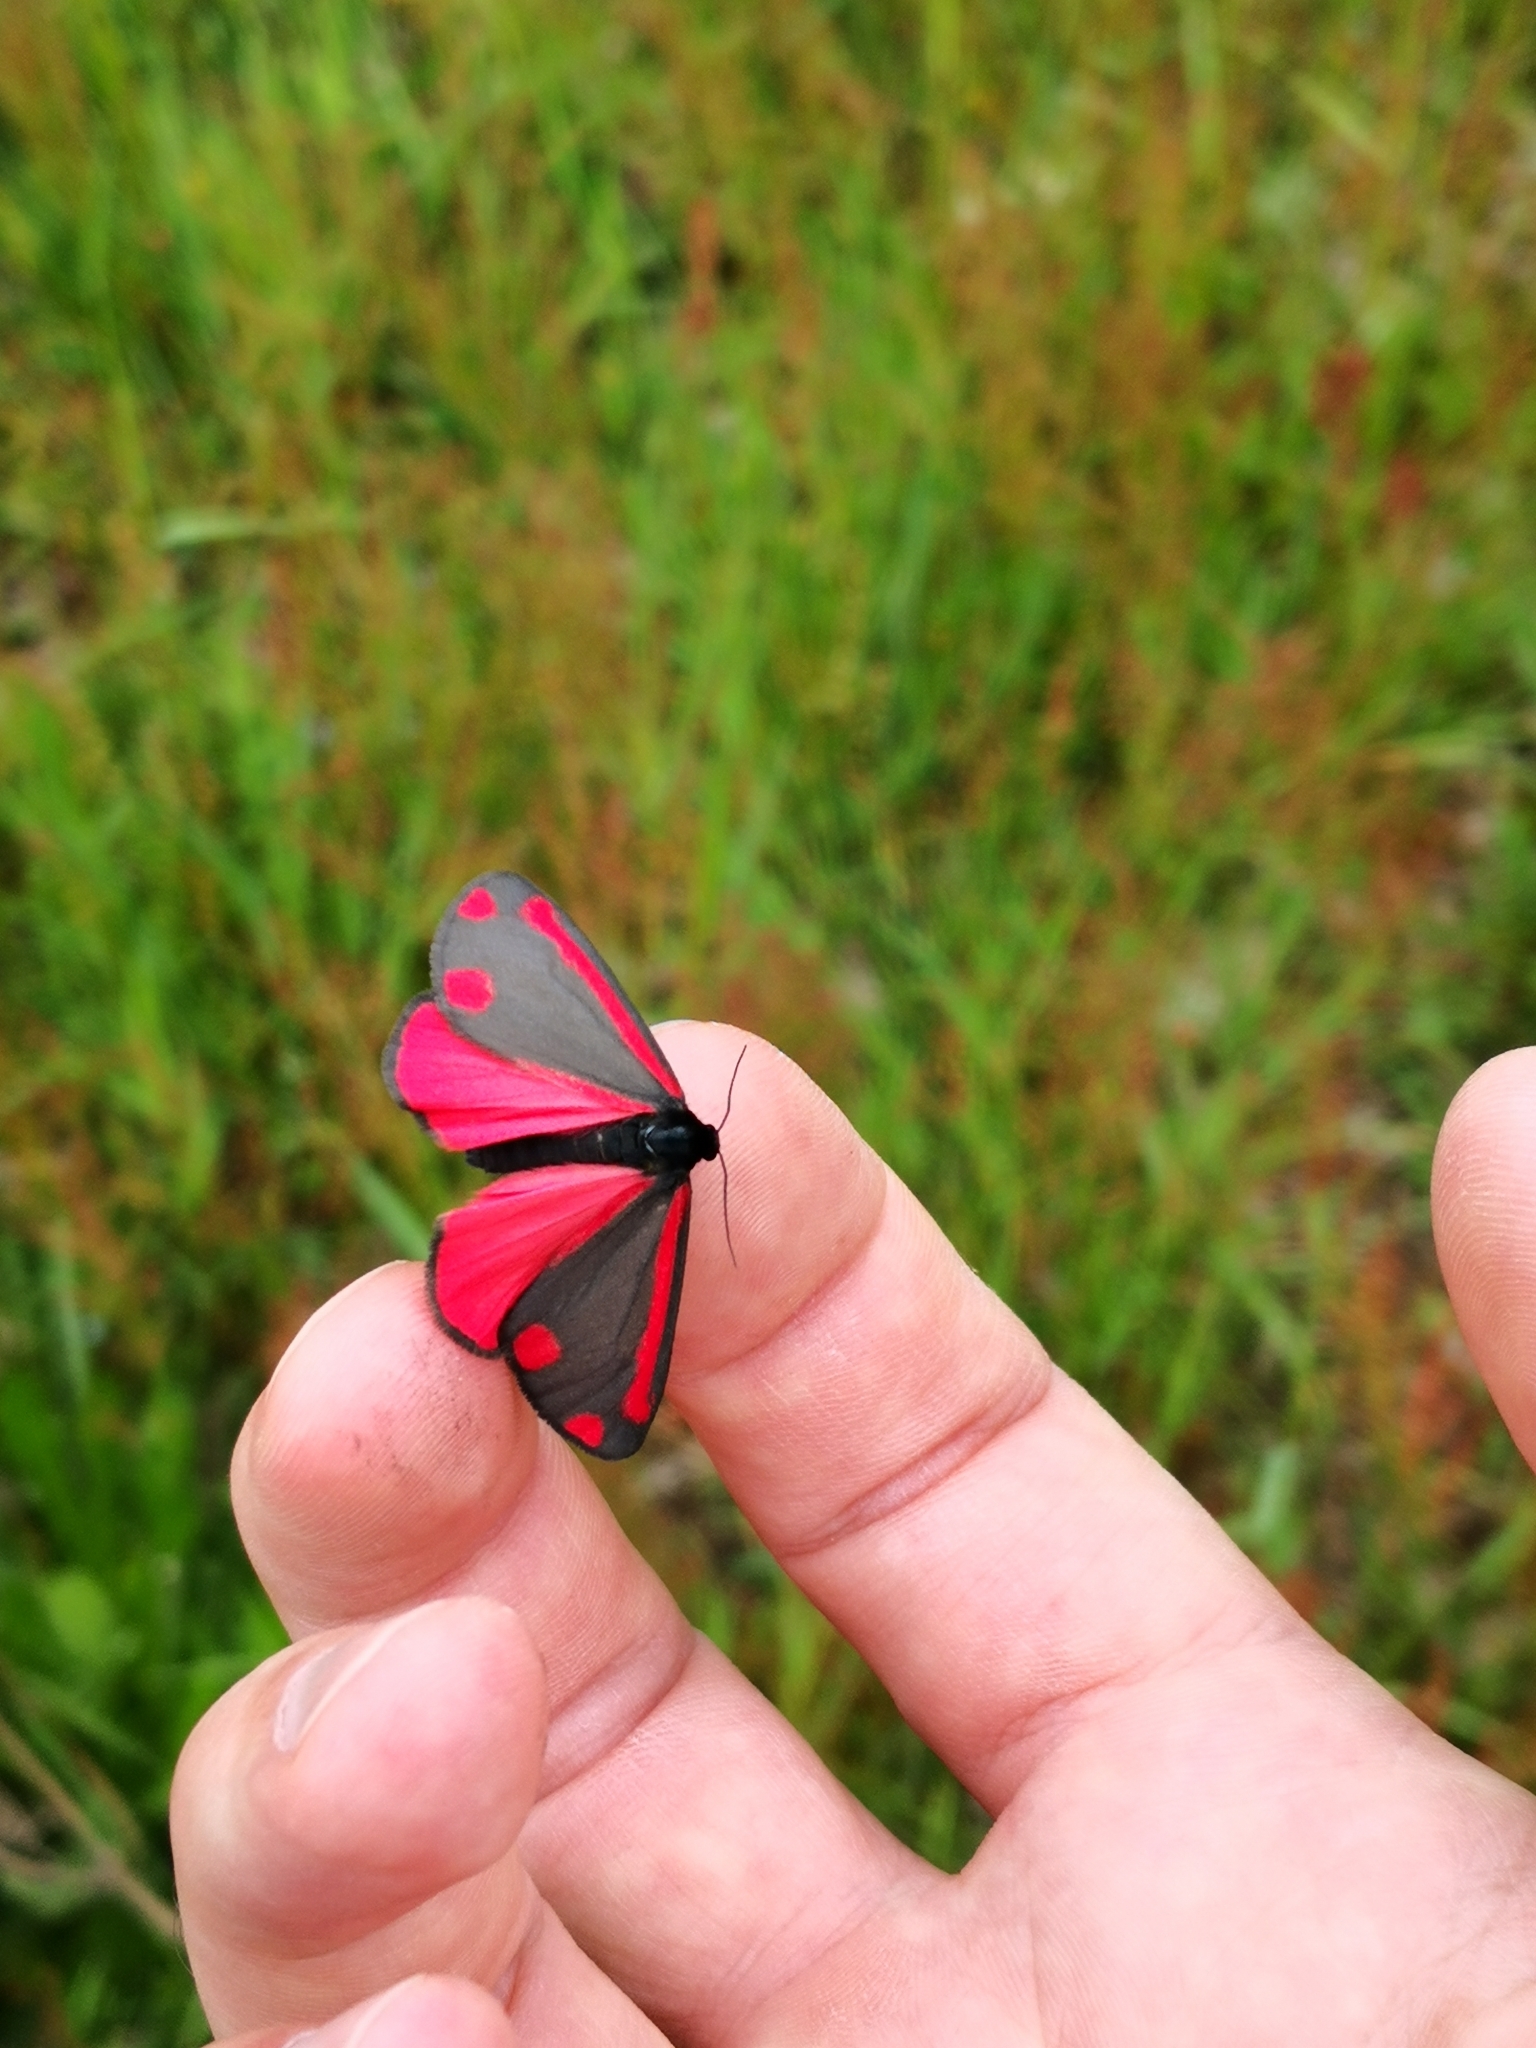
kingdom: Animalia
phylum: Arthropoda
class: Insecta
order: Lepidoptera
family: Erebidae
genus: Tyria
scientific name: Tyria jacobaeae
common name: Cinnabar
